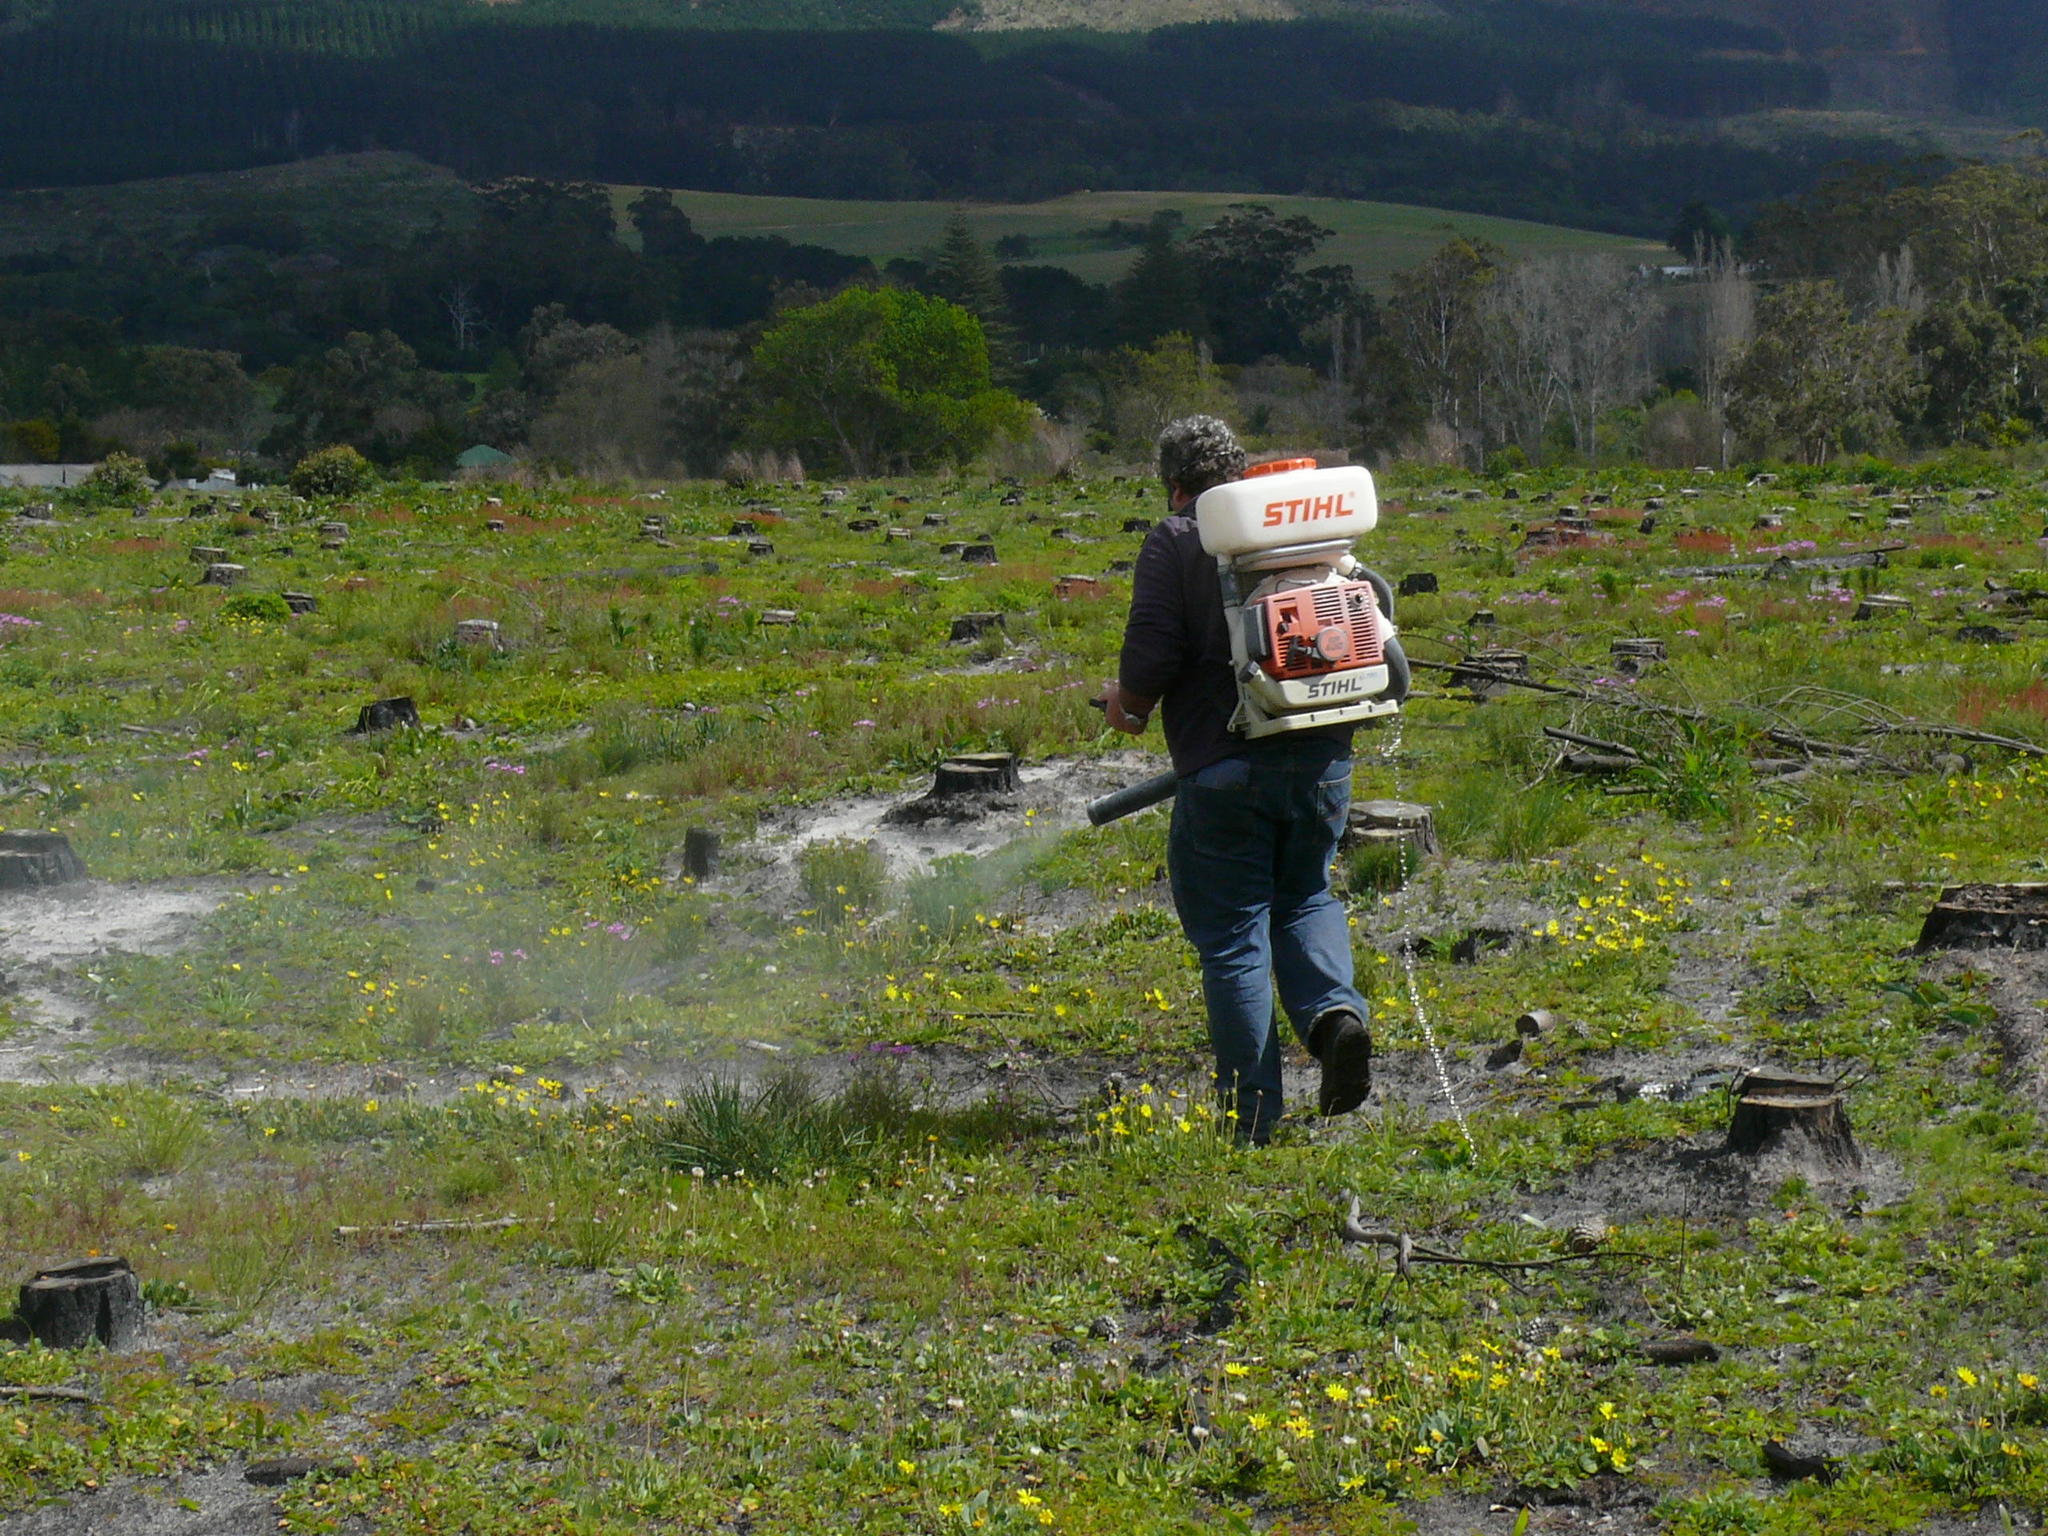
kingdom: Plantae
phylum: Tracheophyta
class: Magnoliopsida
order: Asterales
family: Asteraceae
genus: Othonna
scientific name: Othonna bulbosa
